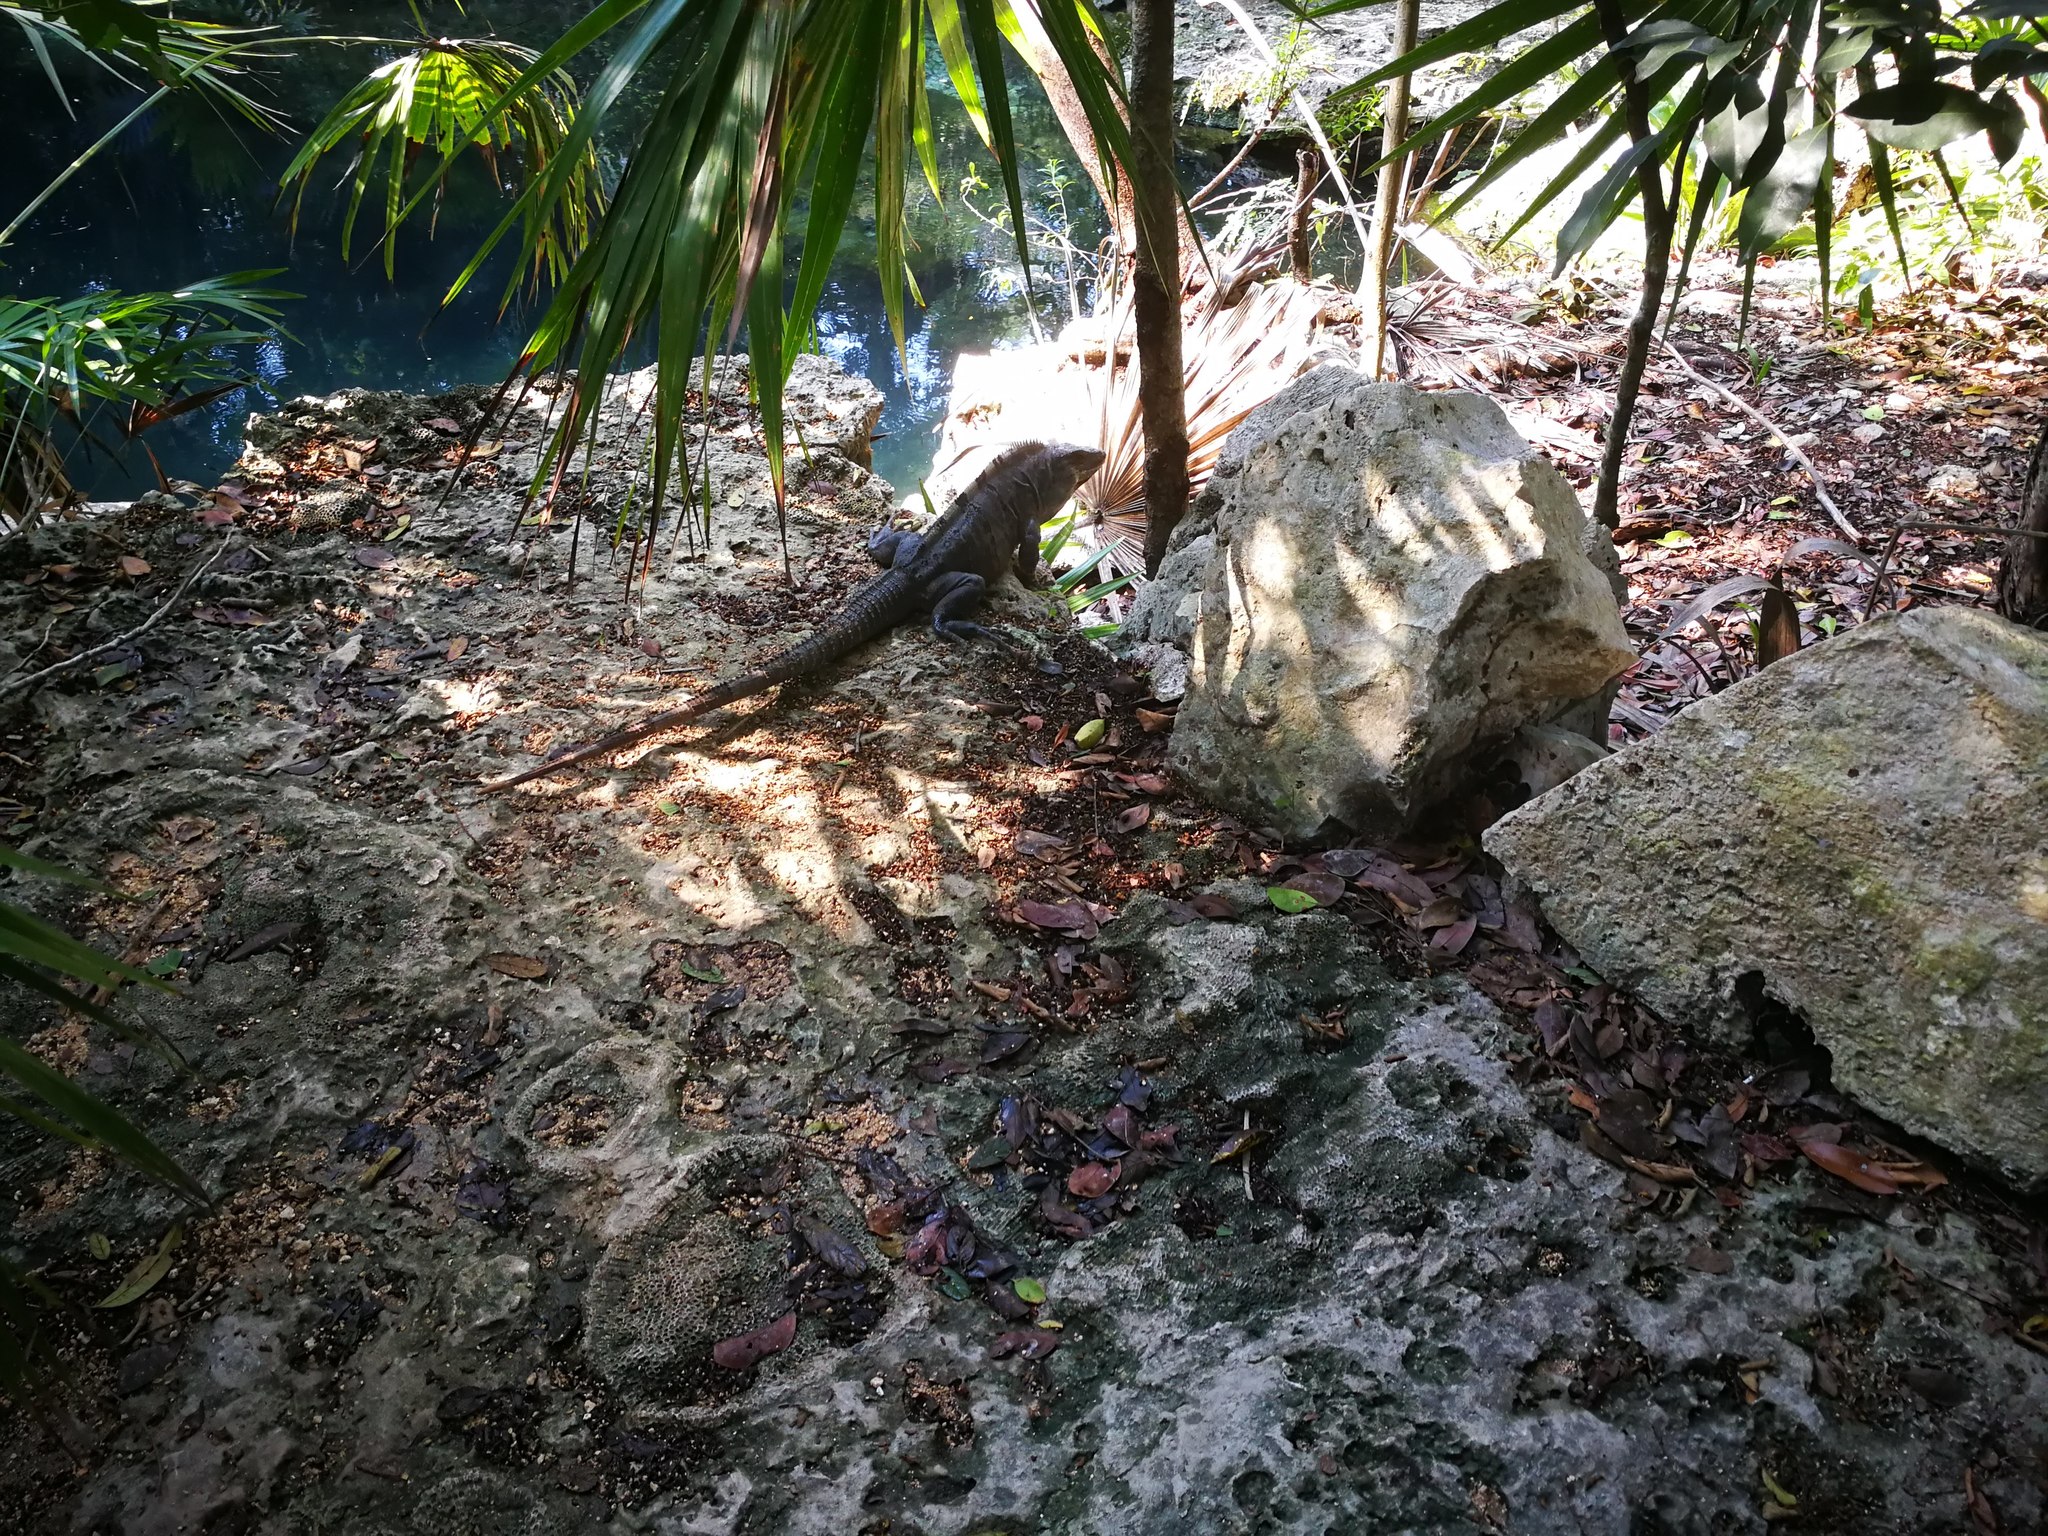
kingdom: Animalia
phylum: Chordata
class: Squamata
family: Iguanidae
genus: Ctenosaura
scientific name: Ctenosaura similis
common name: Black spiny-tailed iguana
